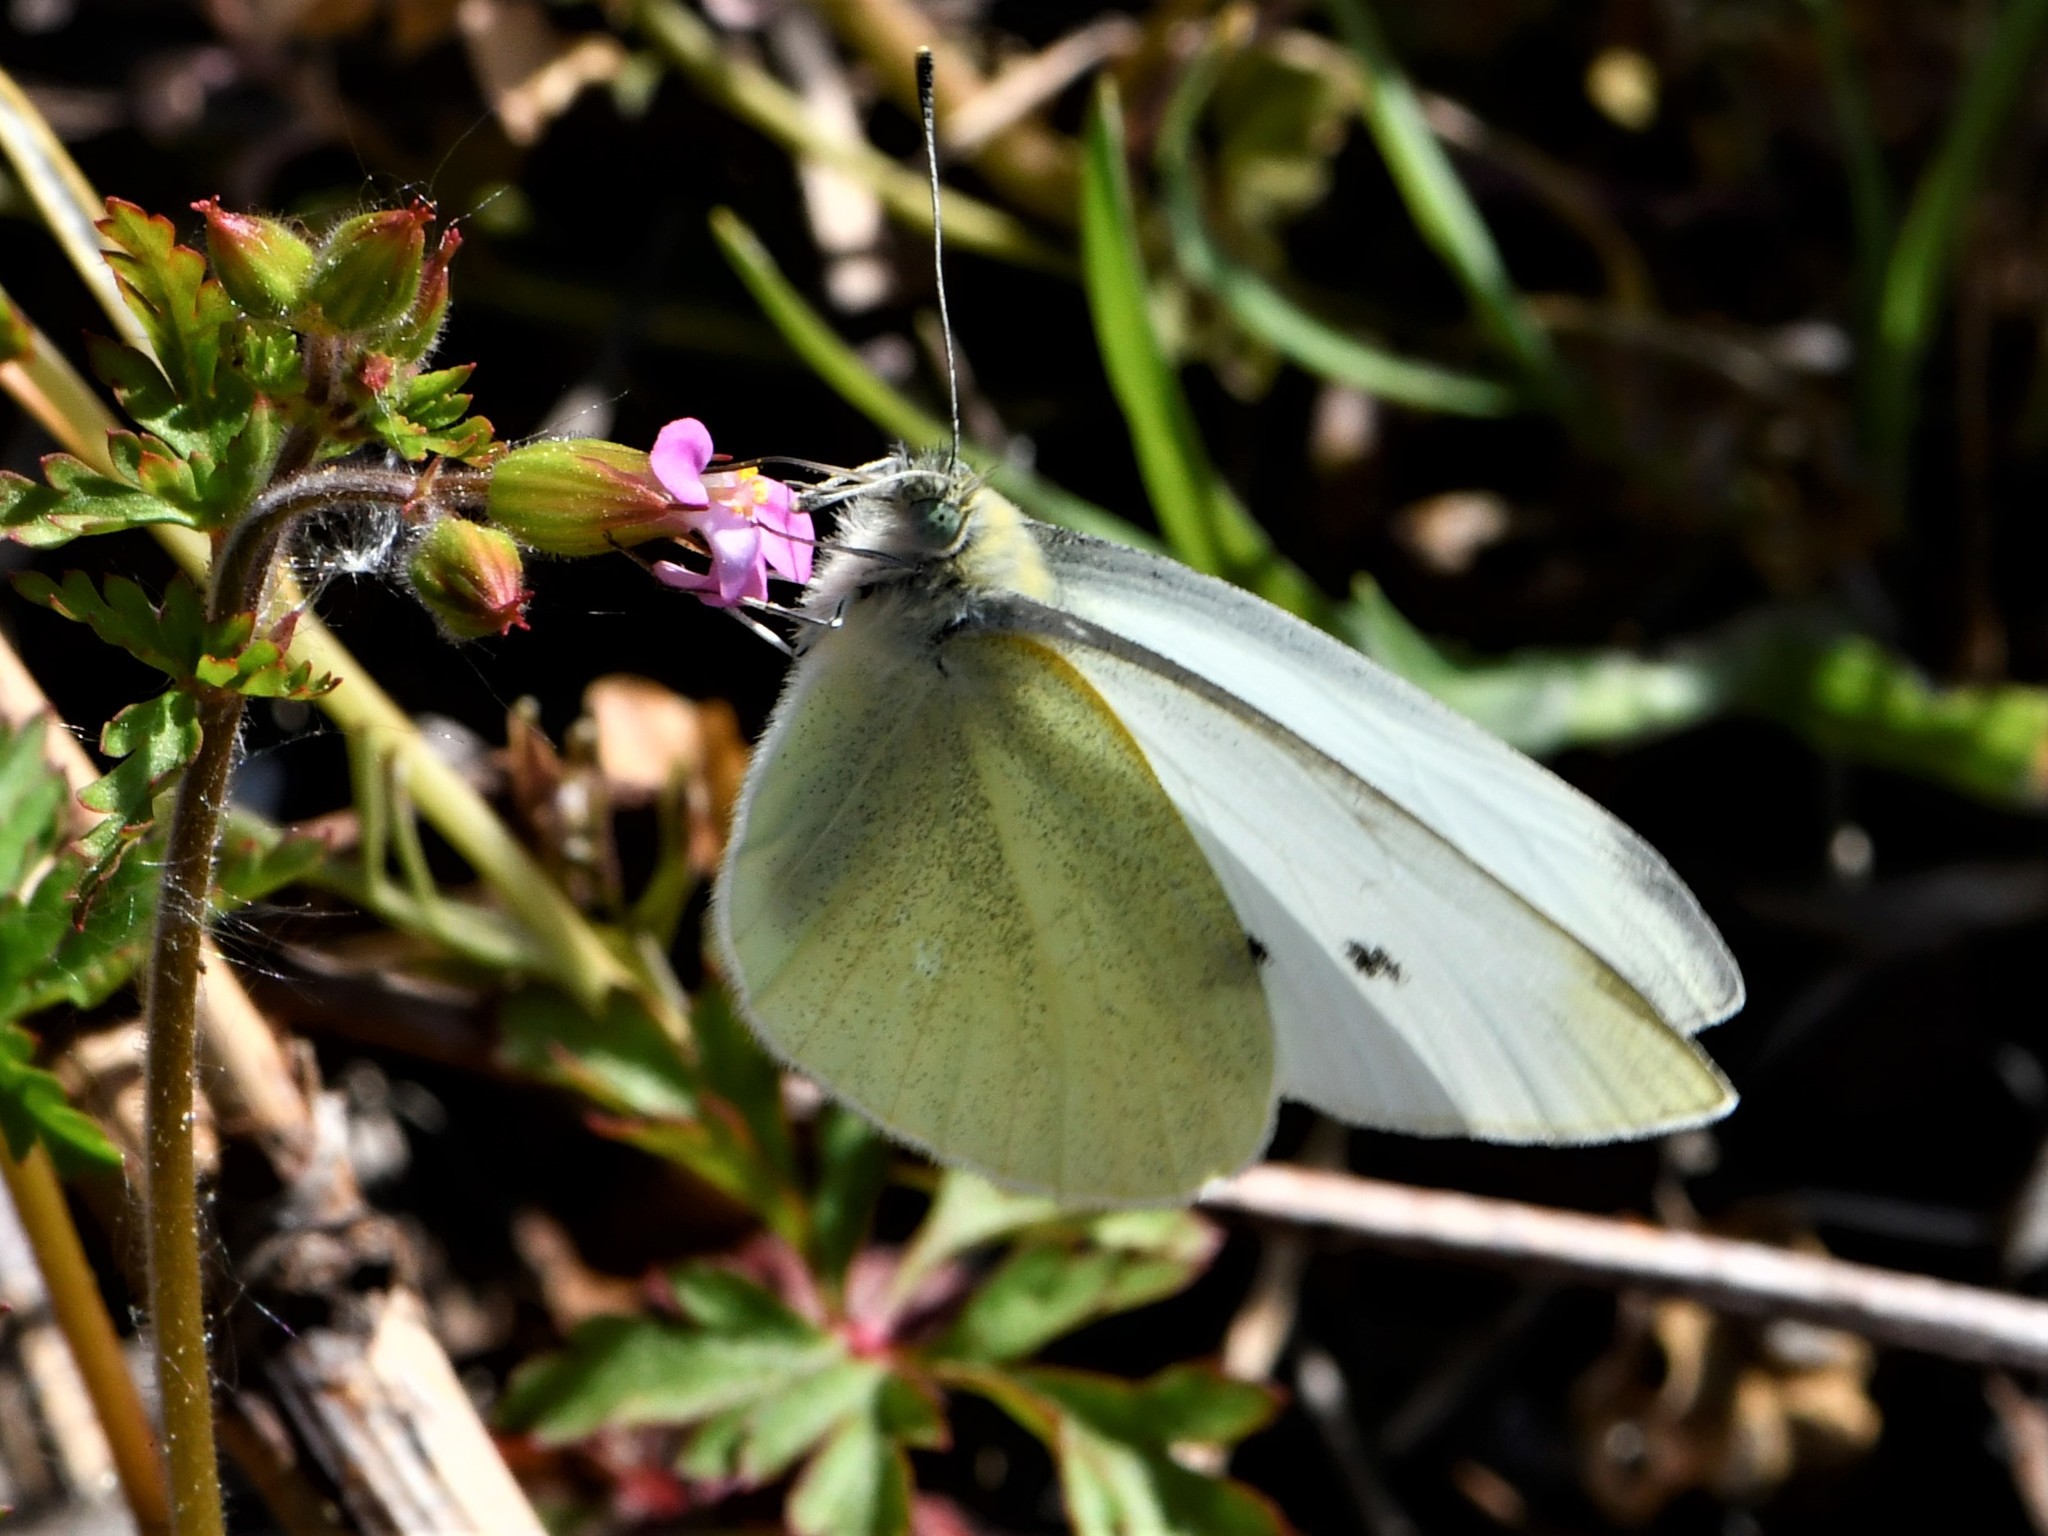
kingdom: Animalia
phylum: Arthropoda
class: Insecta
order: Lepidoptera
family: Pieridae
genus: Pieris
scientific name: Pieris rapae
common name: Small white
